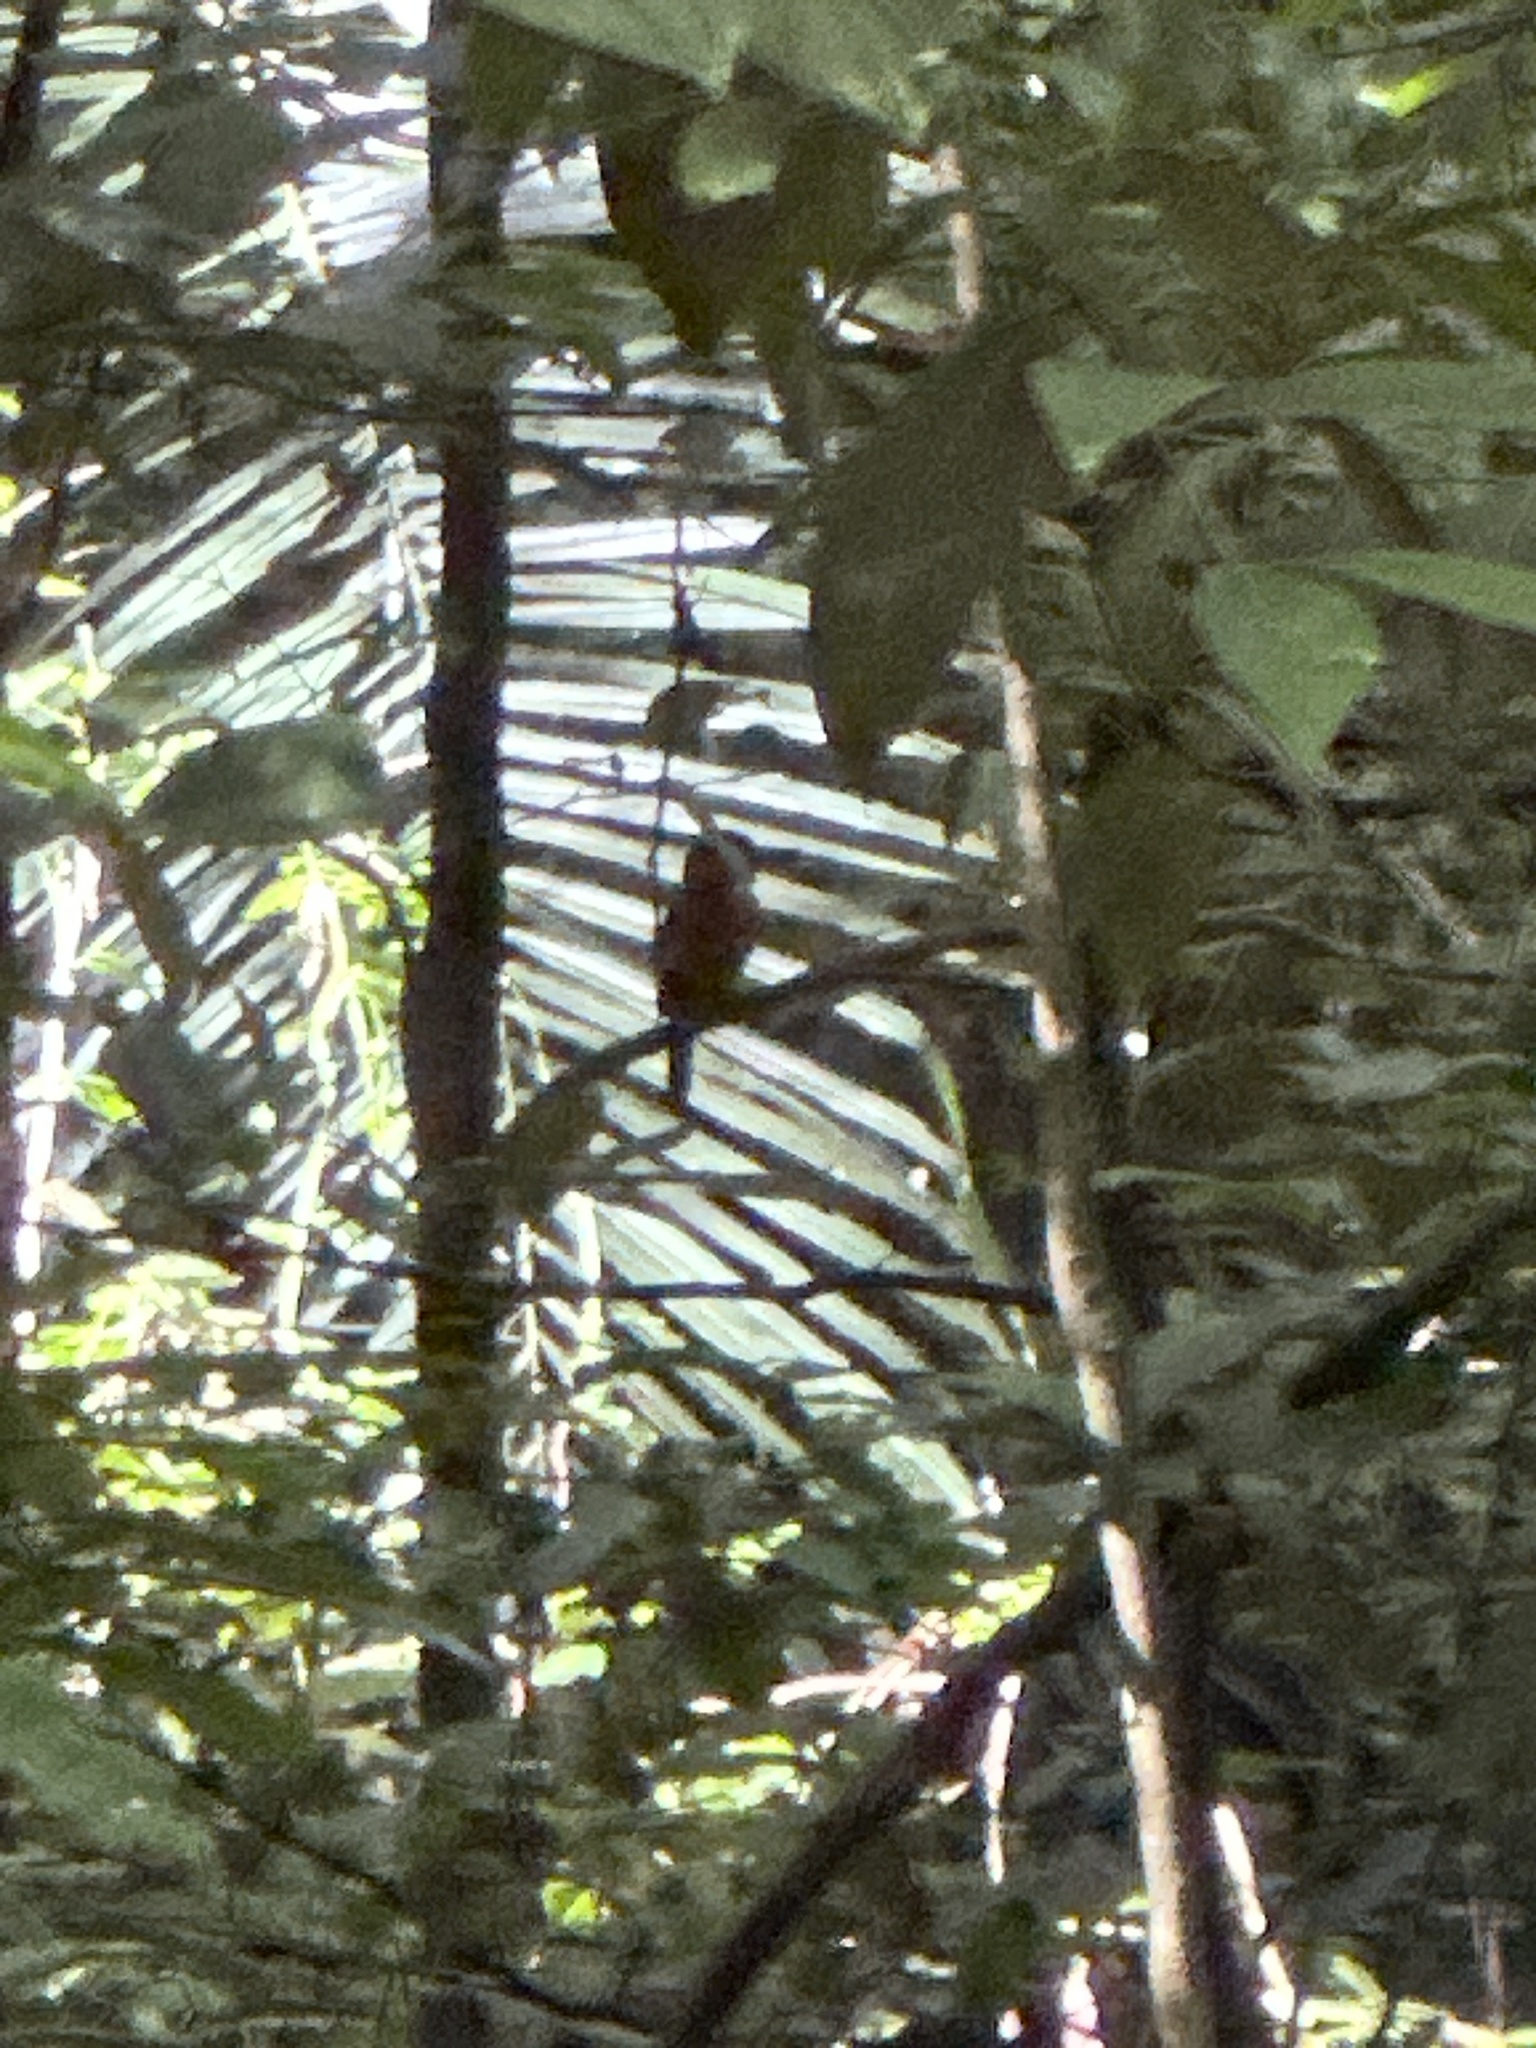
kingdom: Animalia
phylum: Chordata
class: Aves
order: Coraciiformes
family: Alcedinidae
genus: Actenoides
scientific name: Actenoides monachus
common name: Green-backed kingfisher
